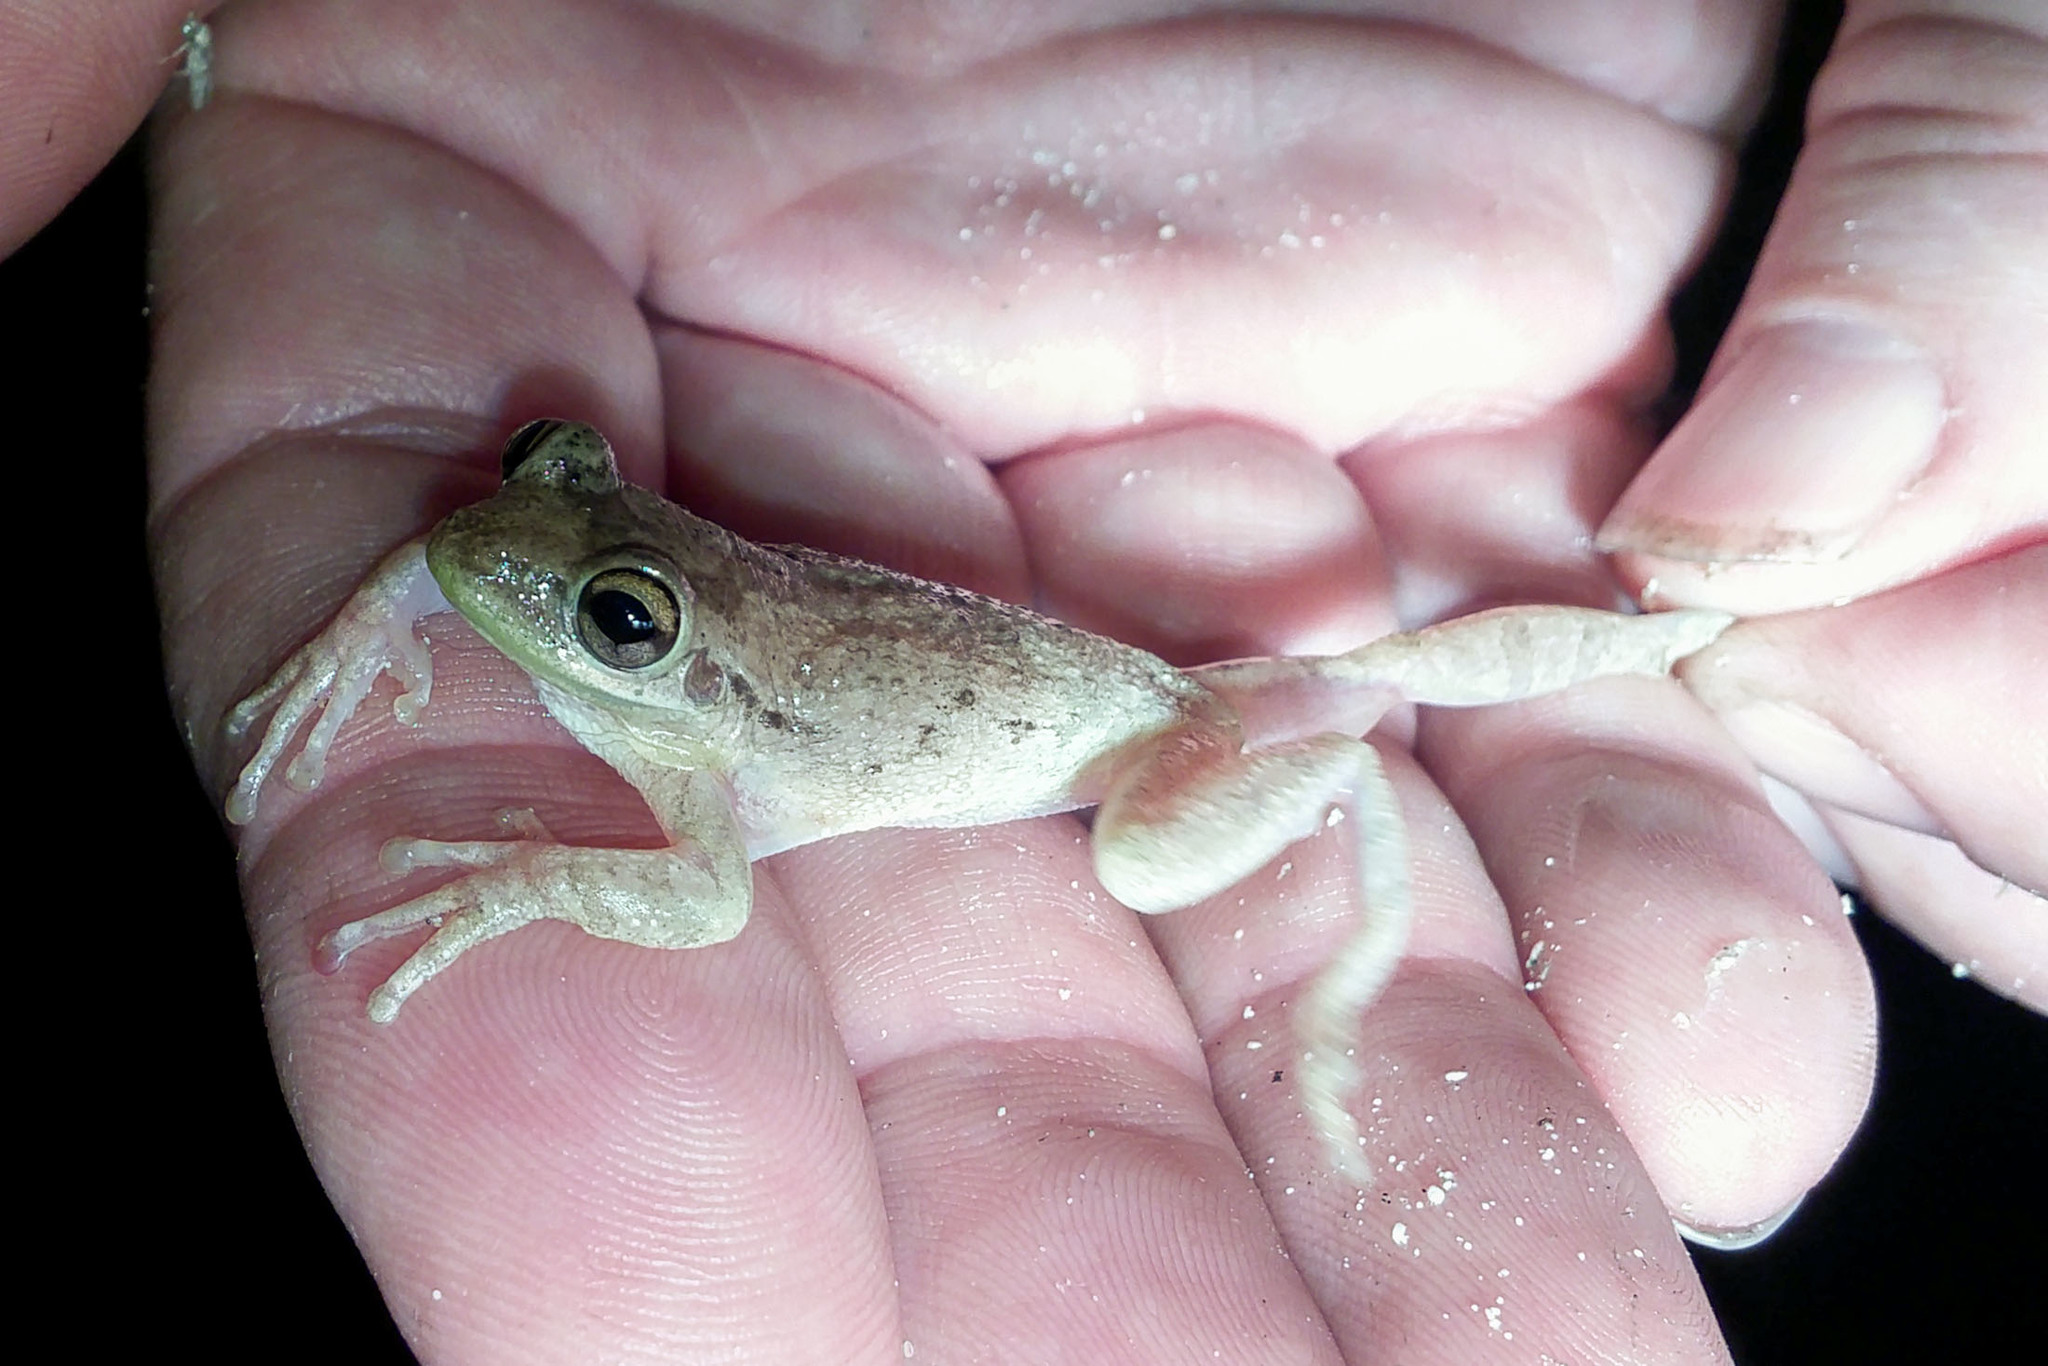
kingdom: Animalia
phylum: Chordata
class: Amphibia
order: Anura
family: Hylidae
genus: Osteopilus
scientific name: Osteopilus septentrionalis
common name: Cuban treefrog
